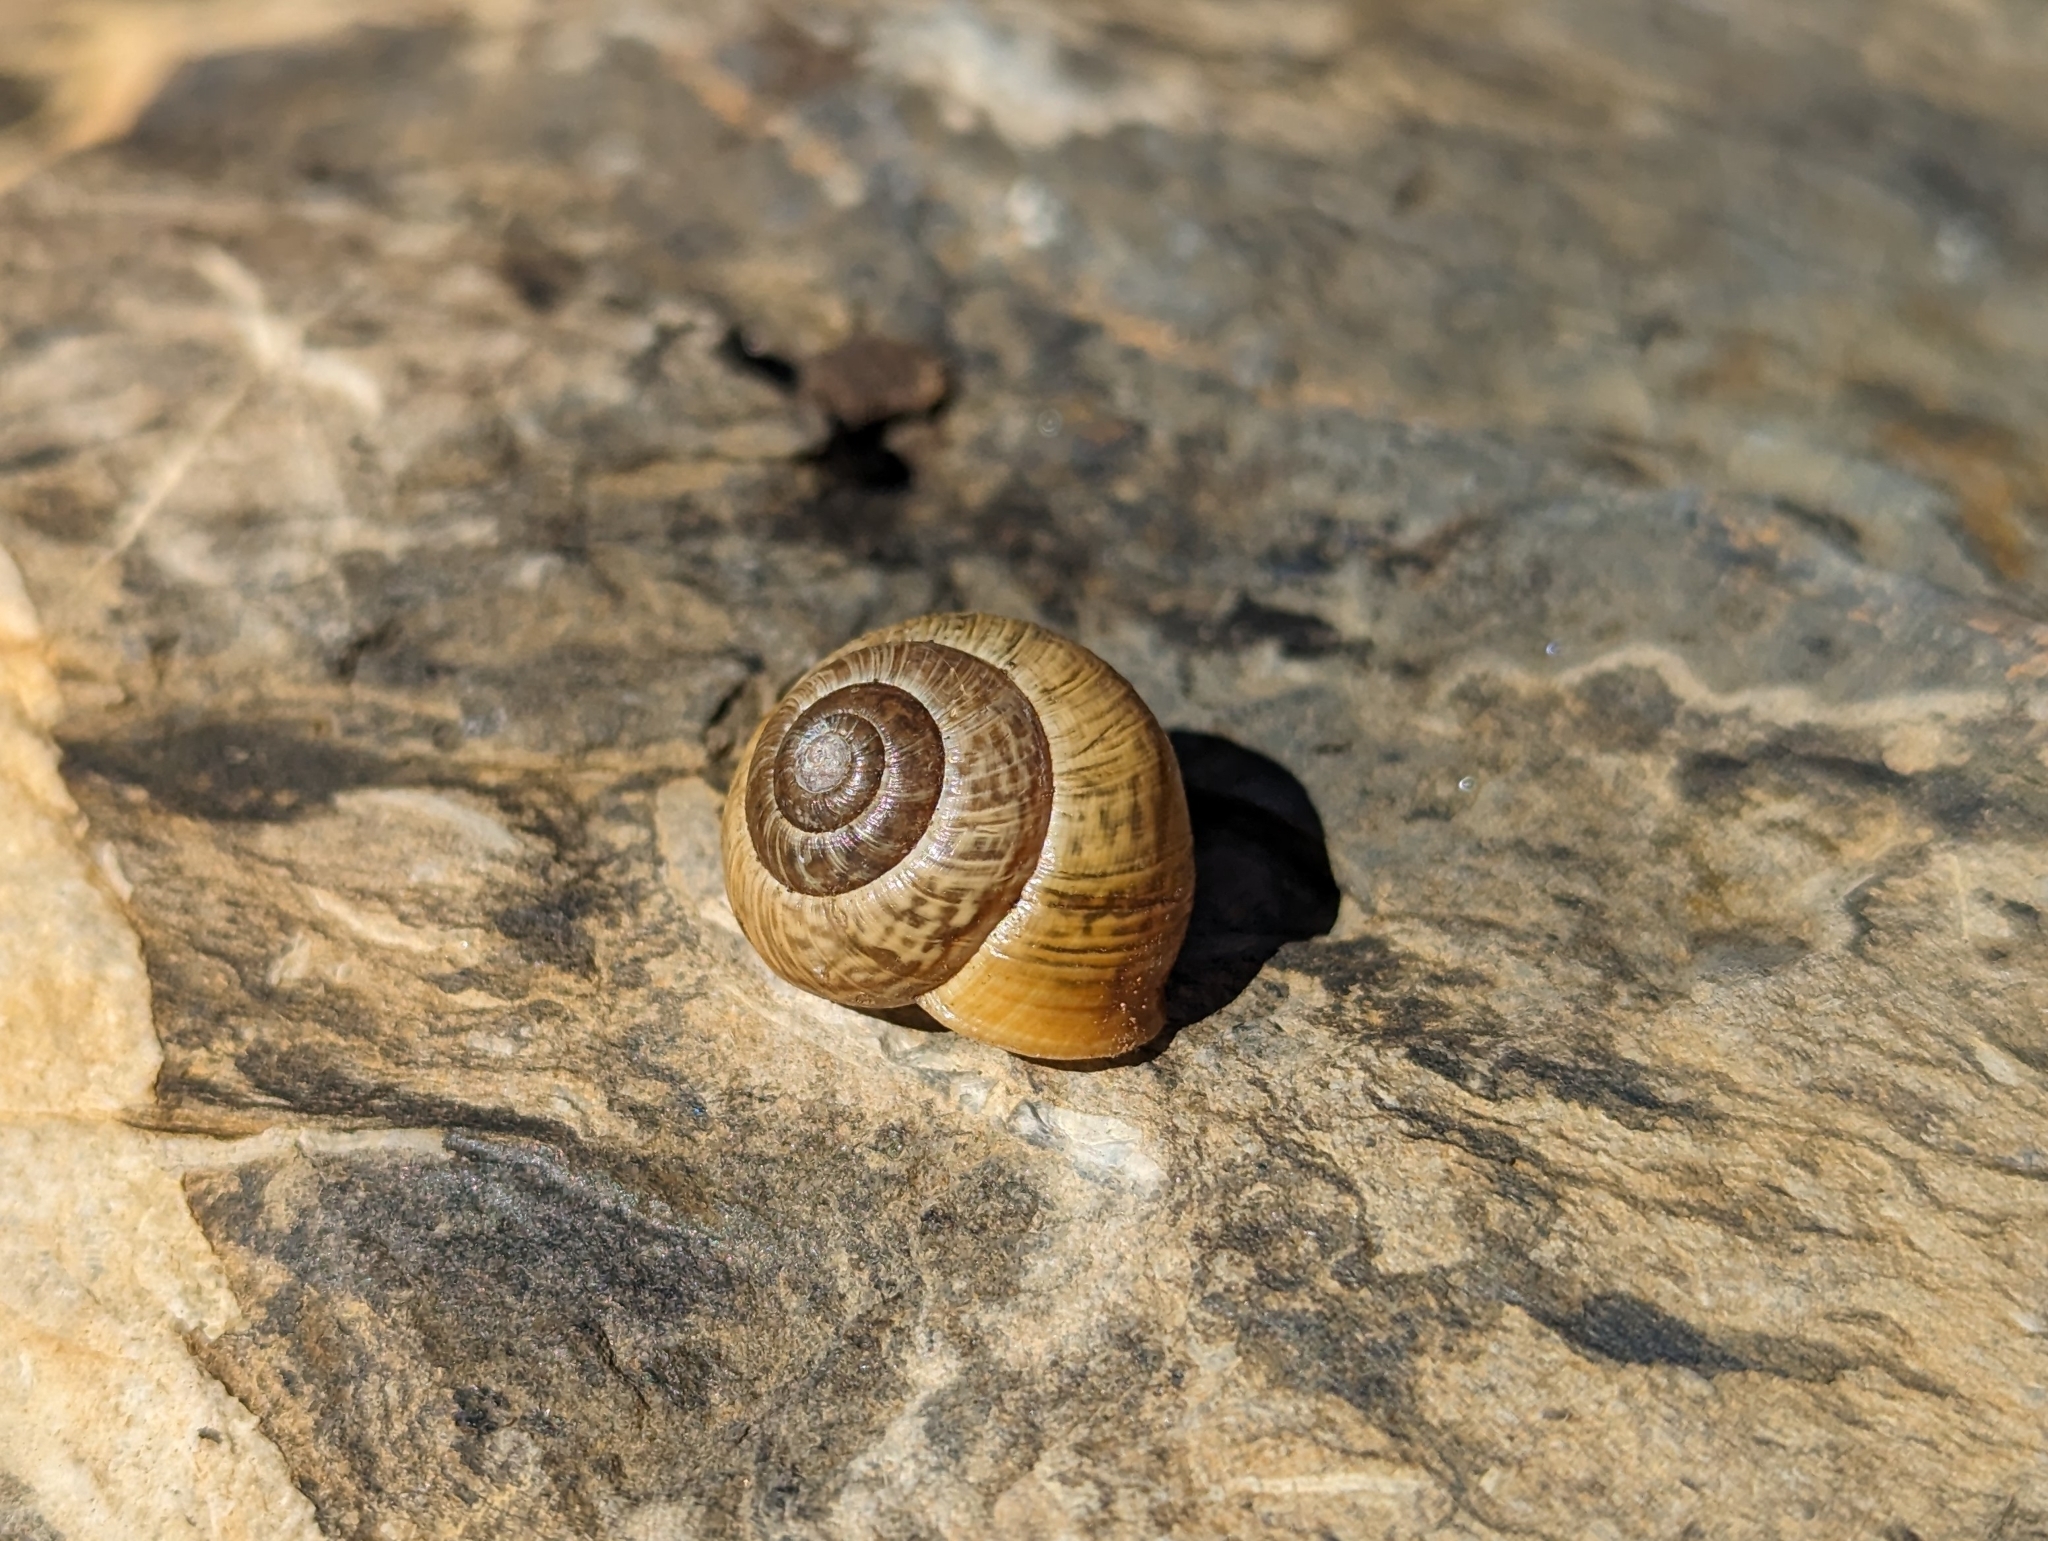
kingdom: Animalia
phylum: Mollusca
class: Gastropoda
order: Stylommatophora
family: Helicidae
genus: Arianta
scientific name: Arianta arbustorum
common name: Copse snail
